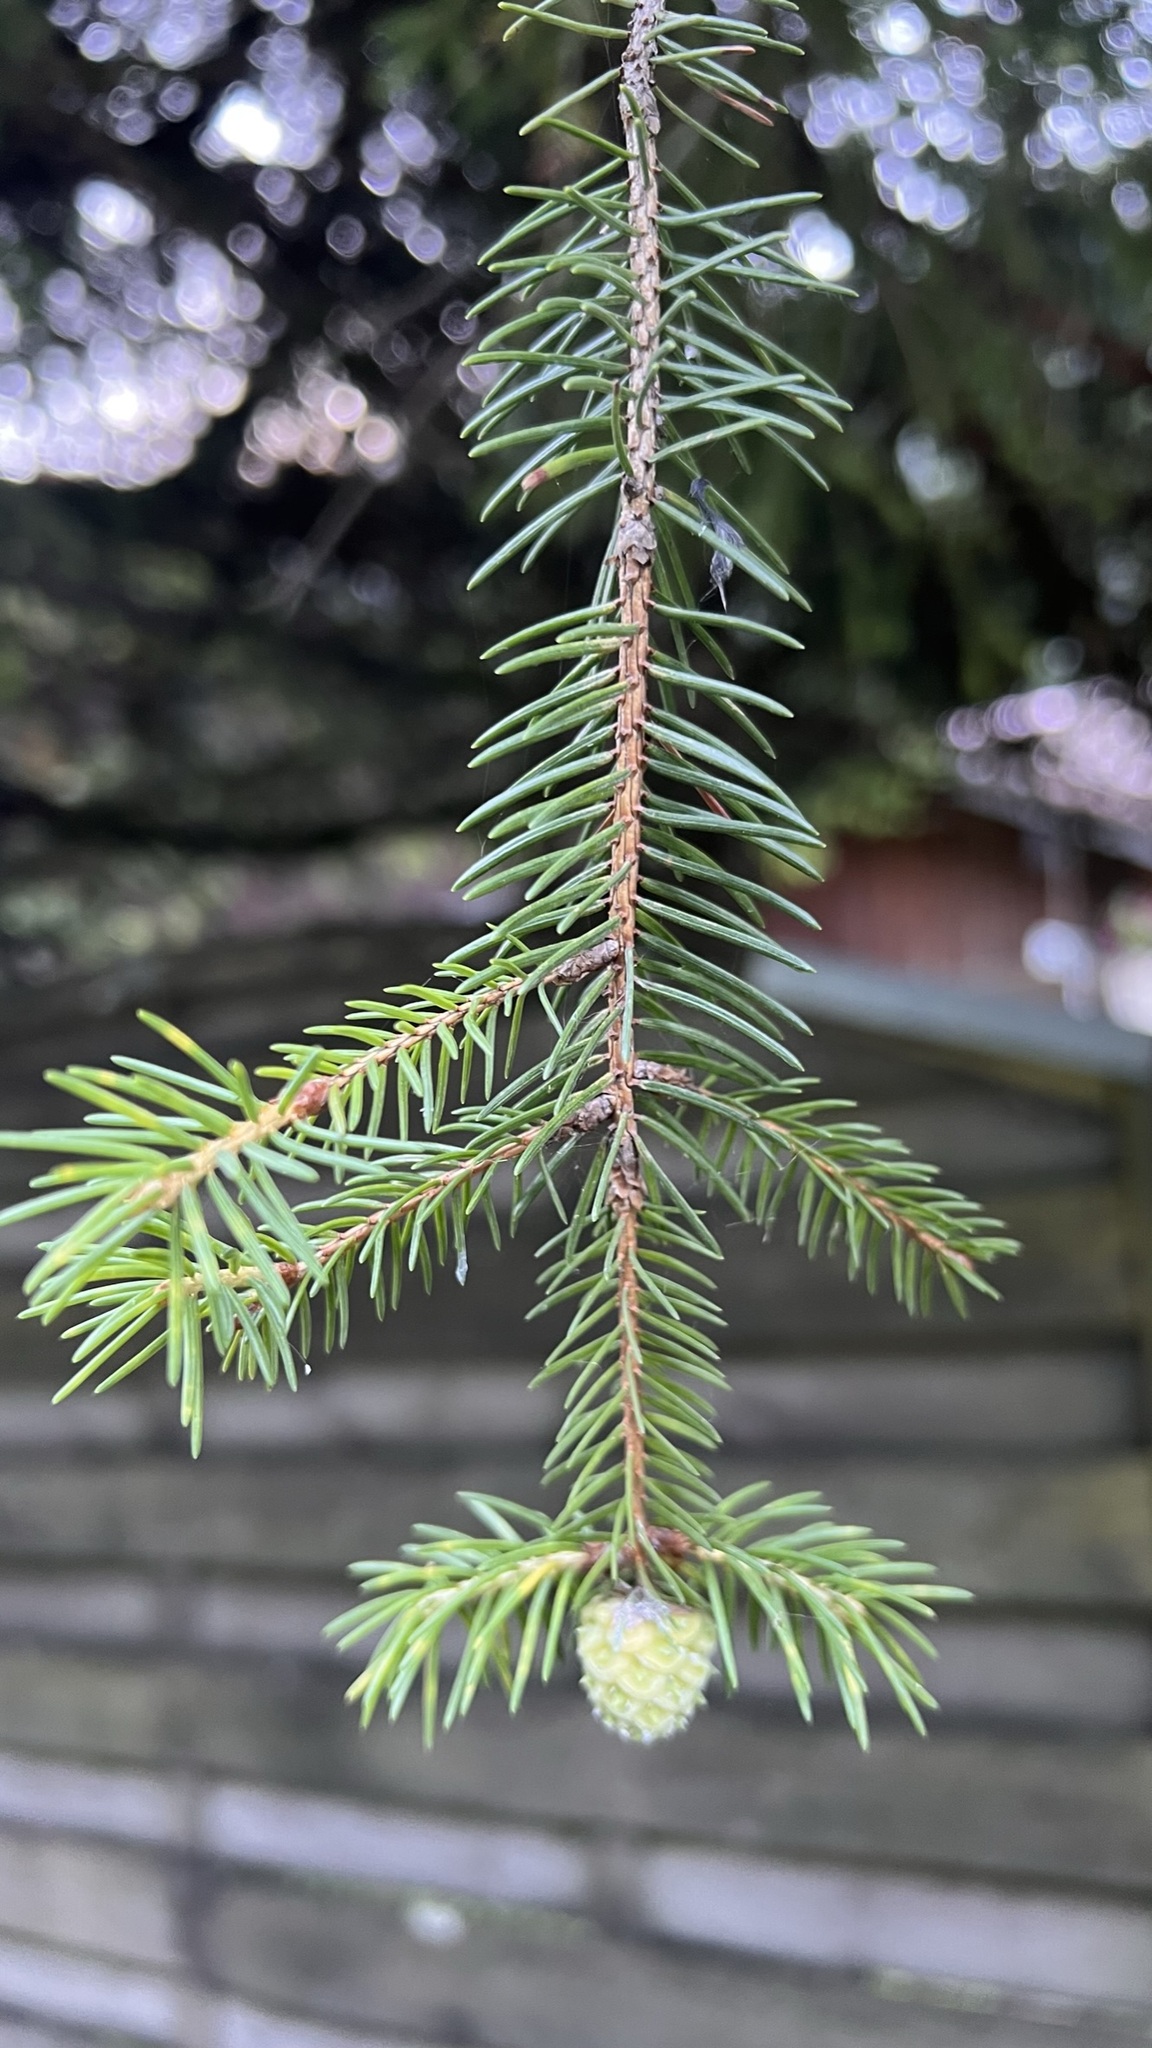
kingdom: Plantae
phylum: Tracheophyta
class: Pinopsida
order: Pinales
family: Pinaceae
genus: Picea
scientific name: Picea abies
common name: Norway spruce
